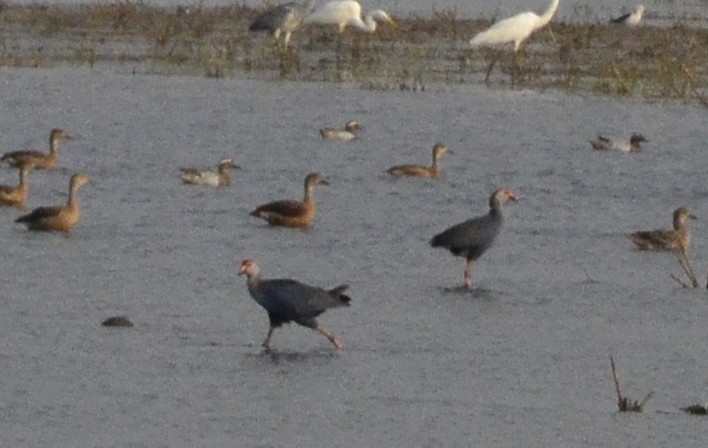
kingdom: Animalia
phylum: Chordata
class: Aves
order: Gruiformes
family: Rallidae
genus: Porphyrio
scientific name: Porphyrio porphyrio
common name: Purple swamphen
